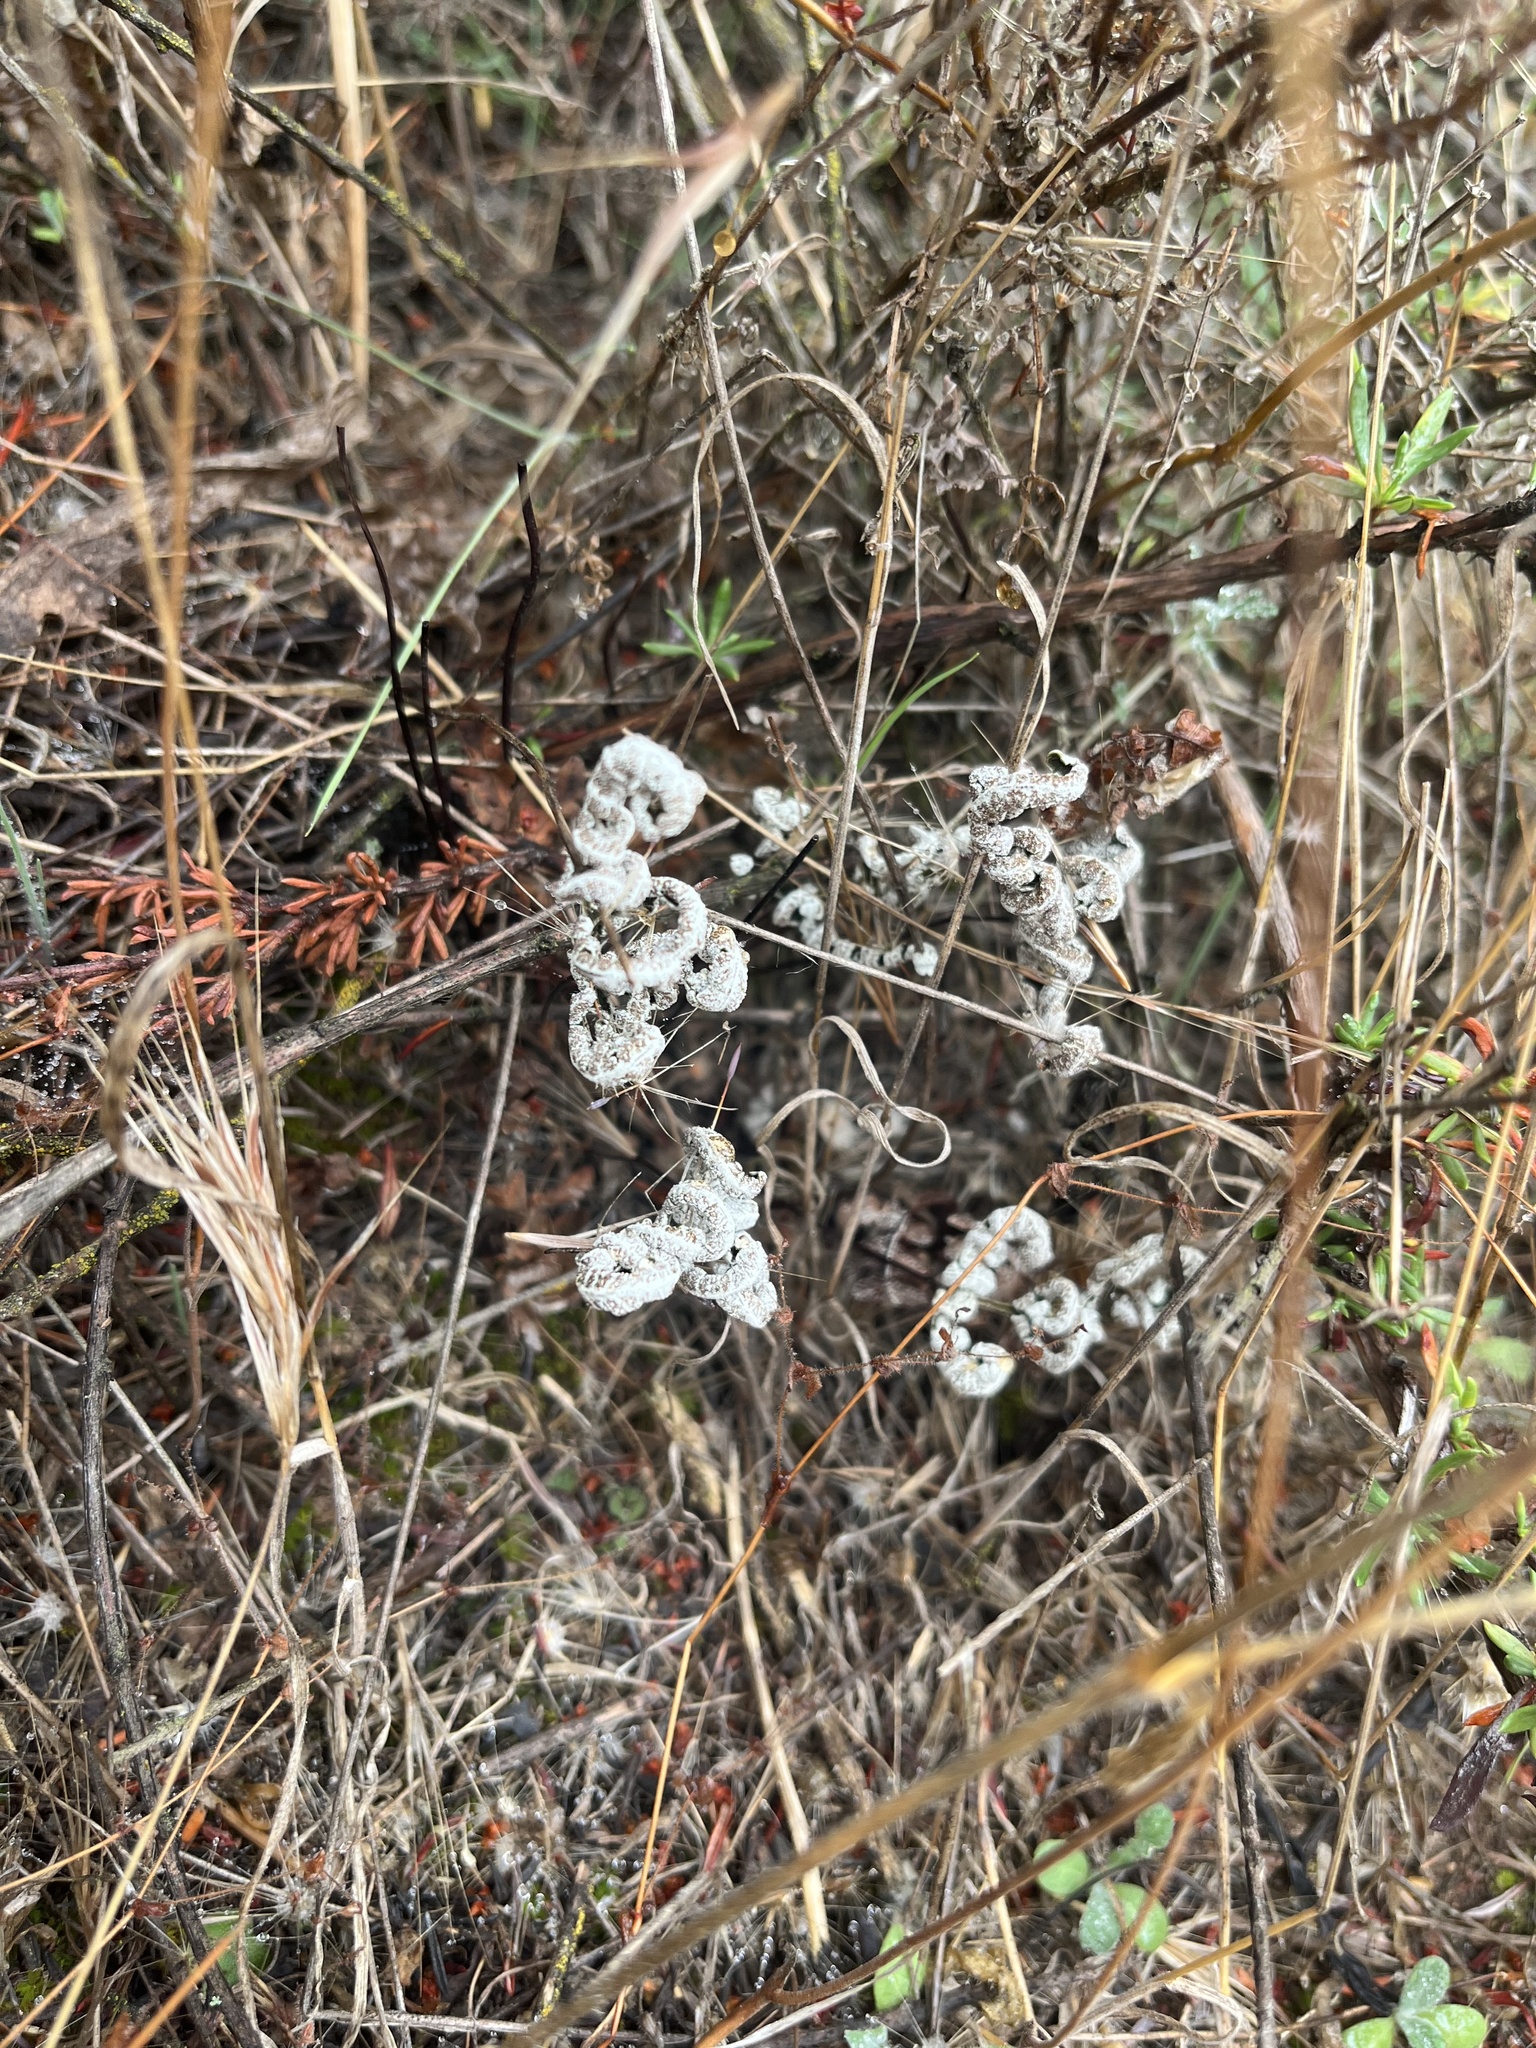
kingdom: Plantae
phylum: Tracheophyta
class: Polypodiopsida
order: Polypodiales
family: Pteridaceae
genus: Pentagramma
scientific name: Pentagramma glanduloviscida
